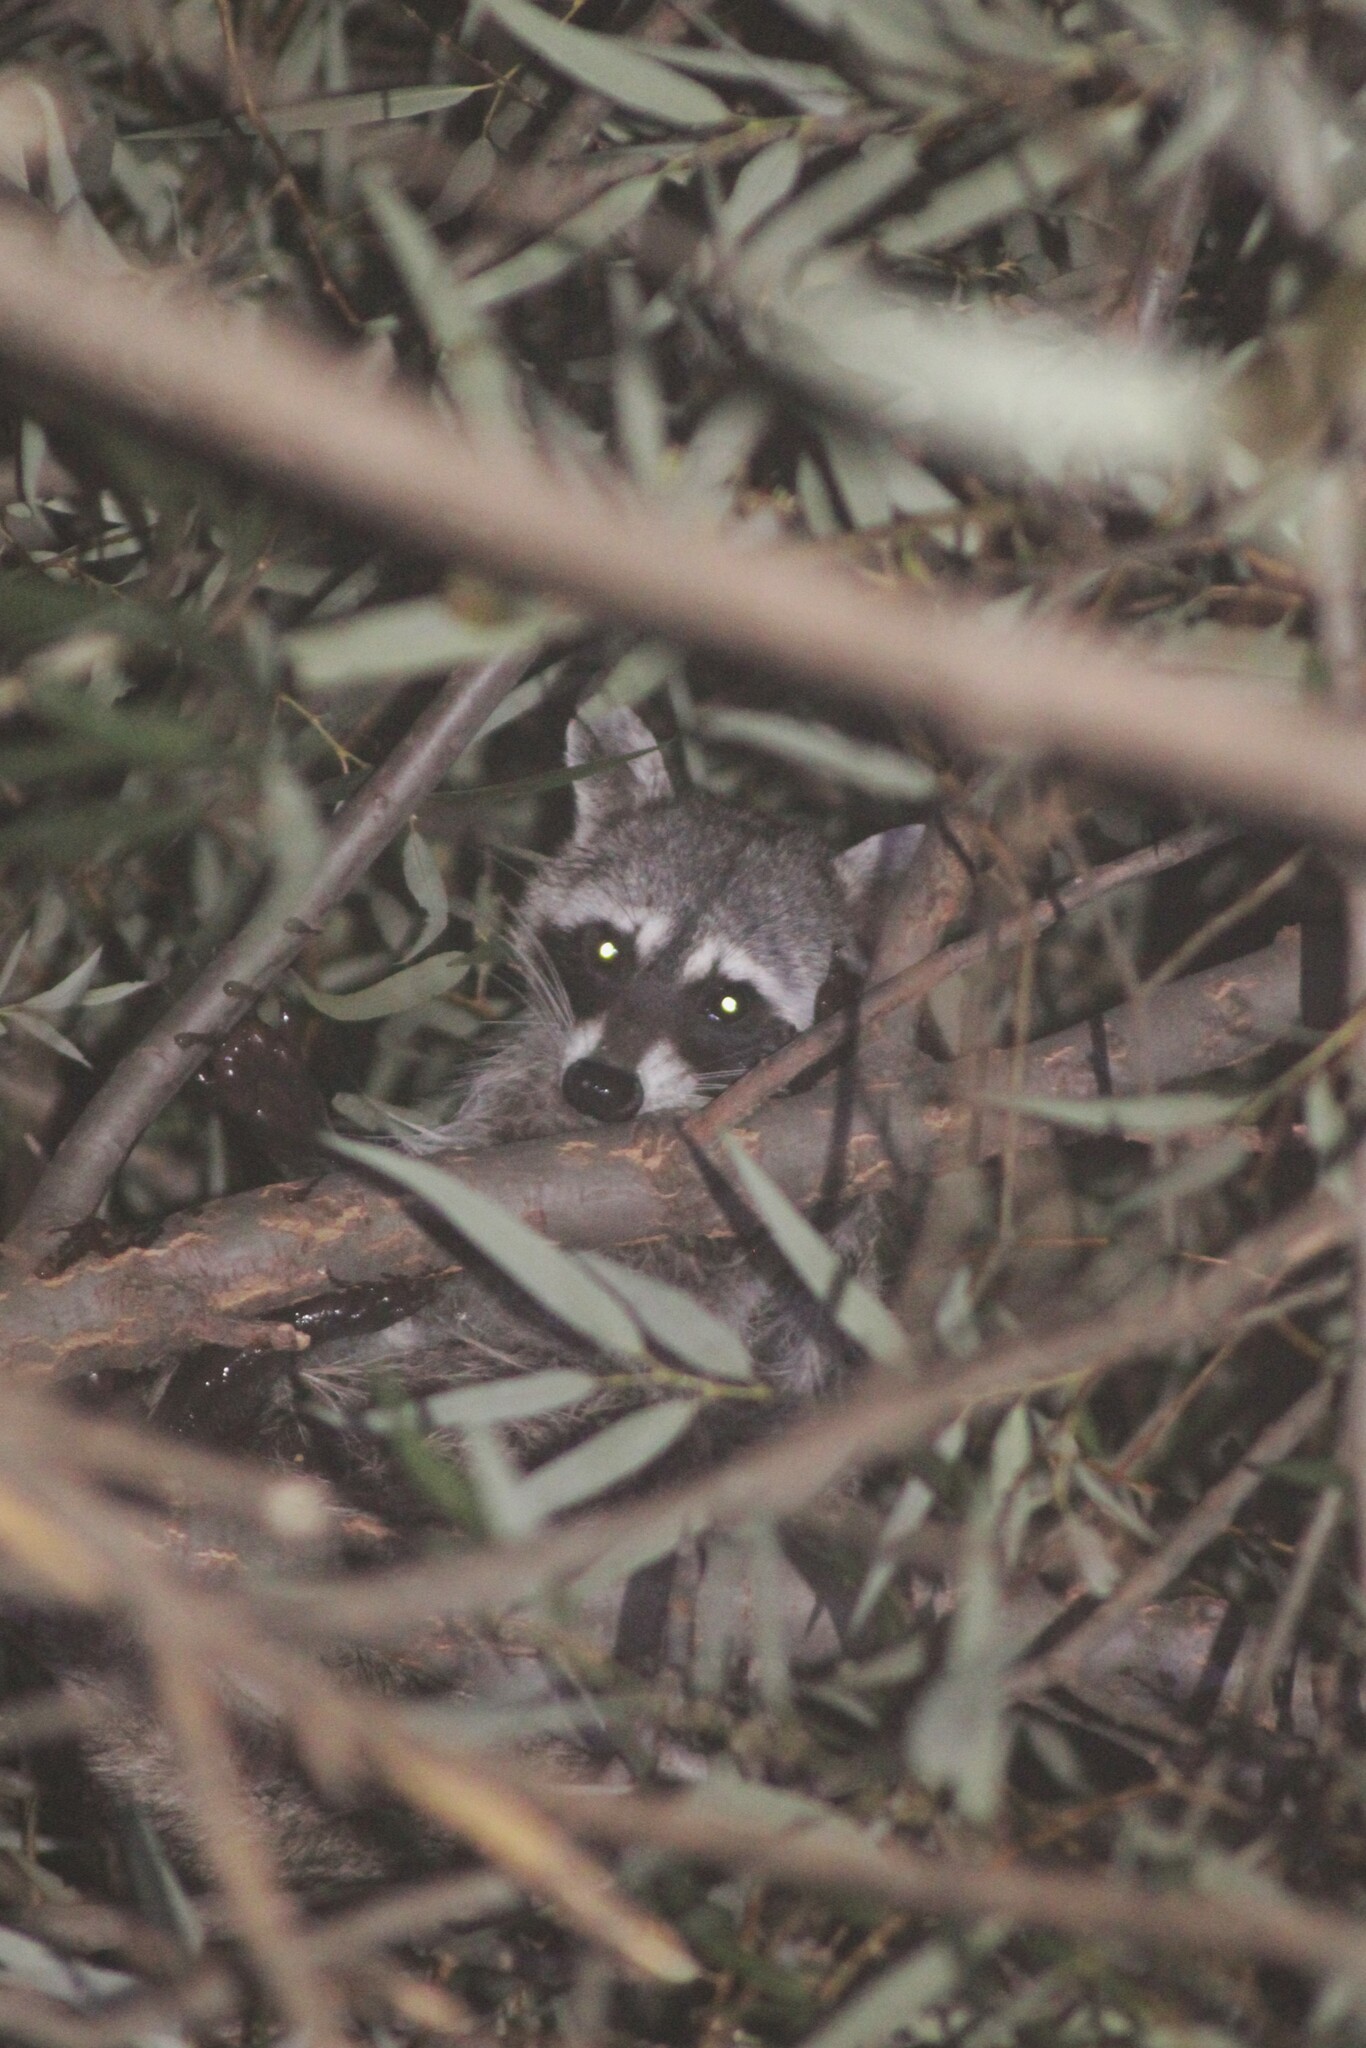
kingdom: Animalia
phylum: Chordata
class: Mammalia
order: Carnivora
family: Procyonidae
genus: Procyon
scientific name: Procyon lotor
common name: Raccoon
